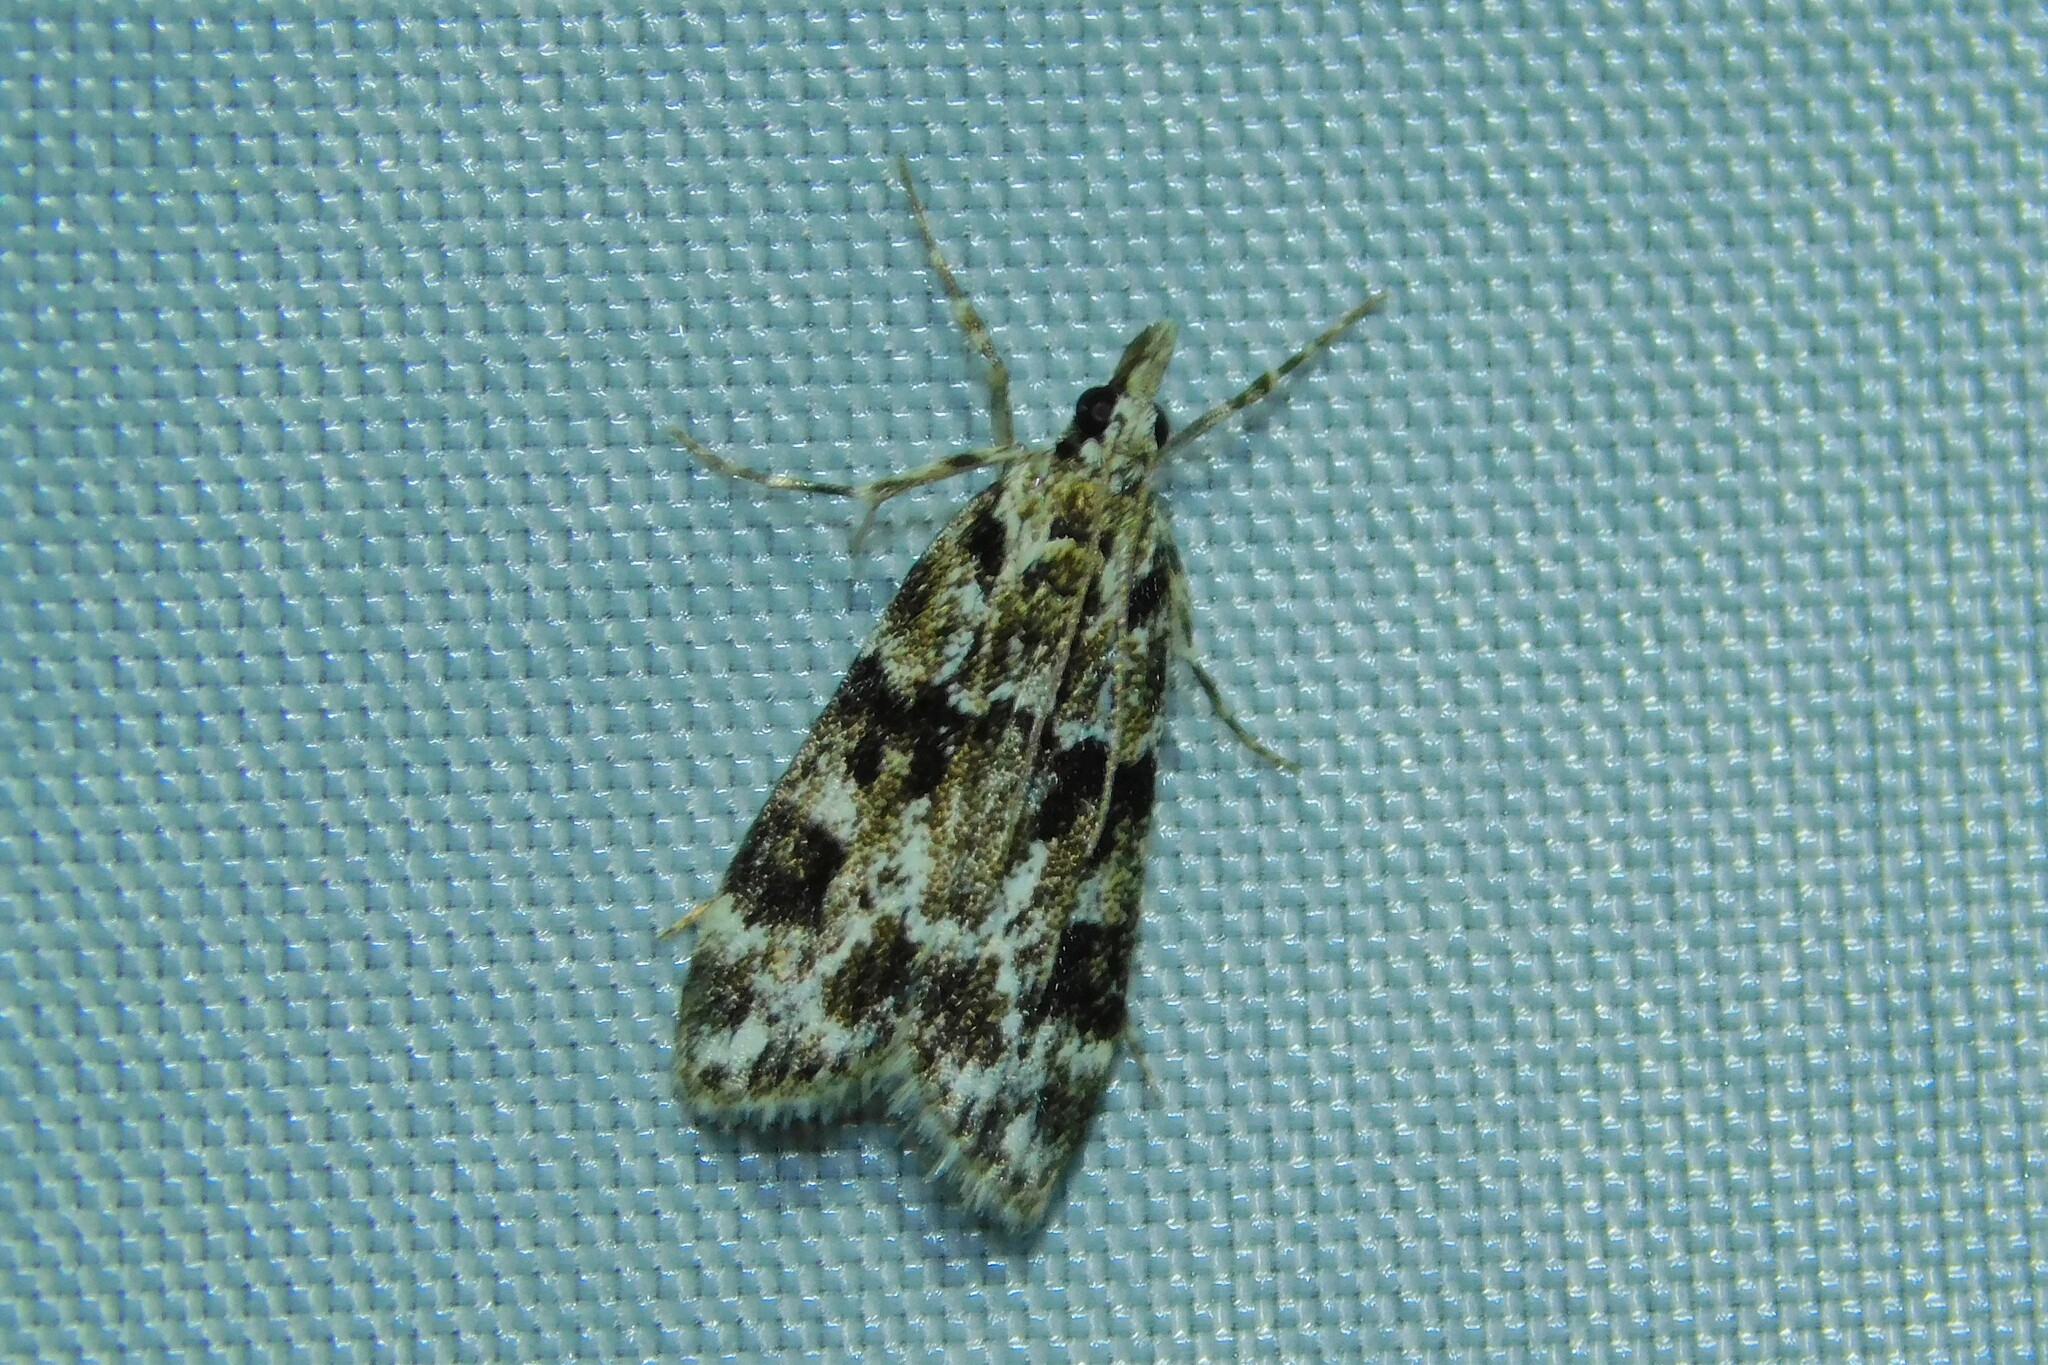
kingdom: Animalia
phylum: Arthropoda
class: Insecta
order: Lepidoptera
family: Crambidae
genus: Eudonia
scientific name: Eudonia delunella
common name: Pied grey
